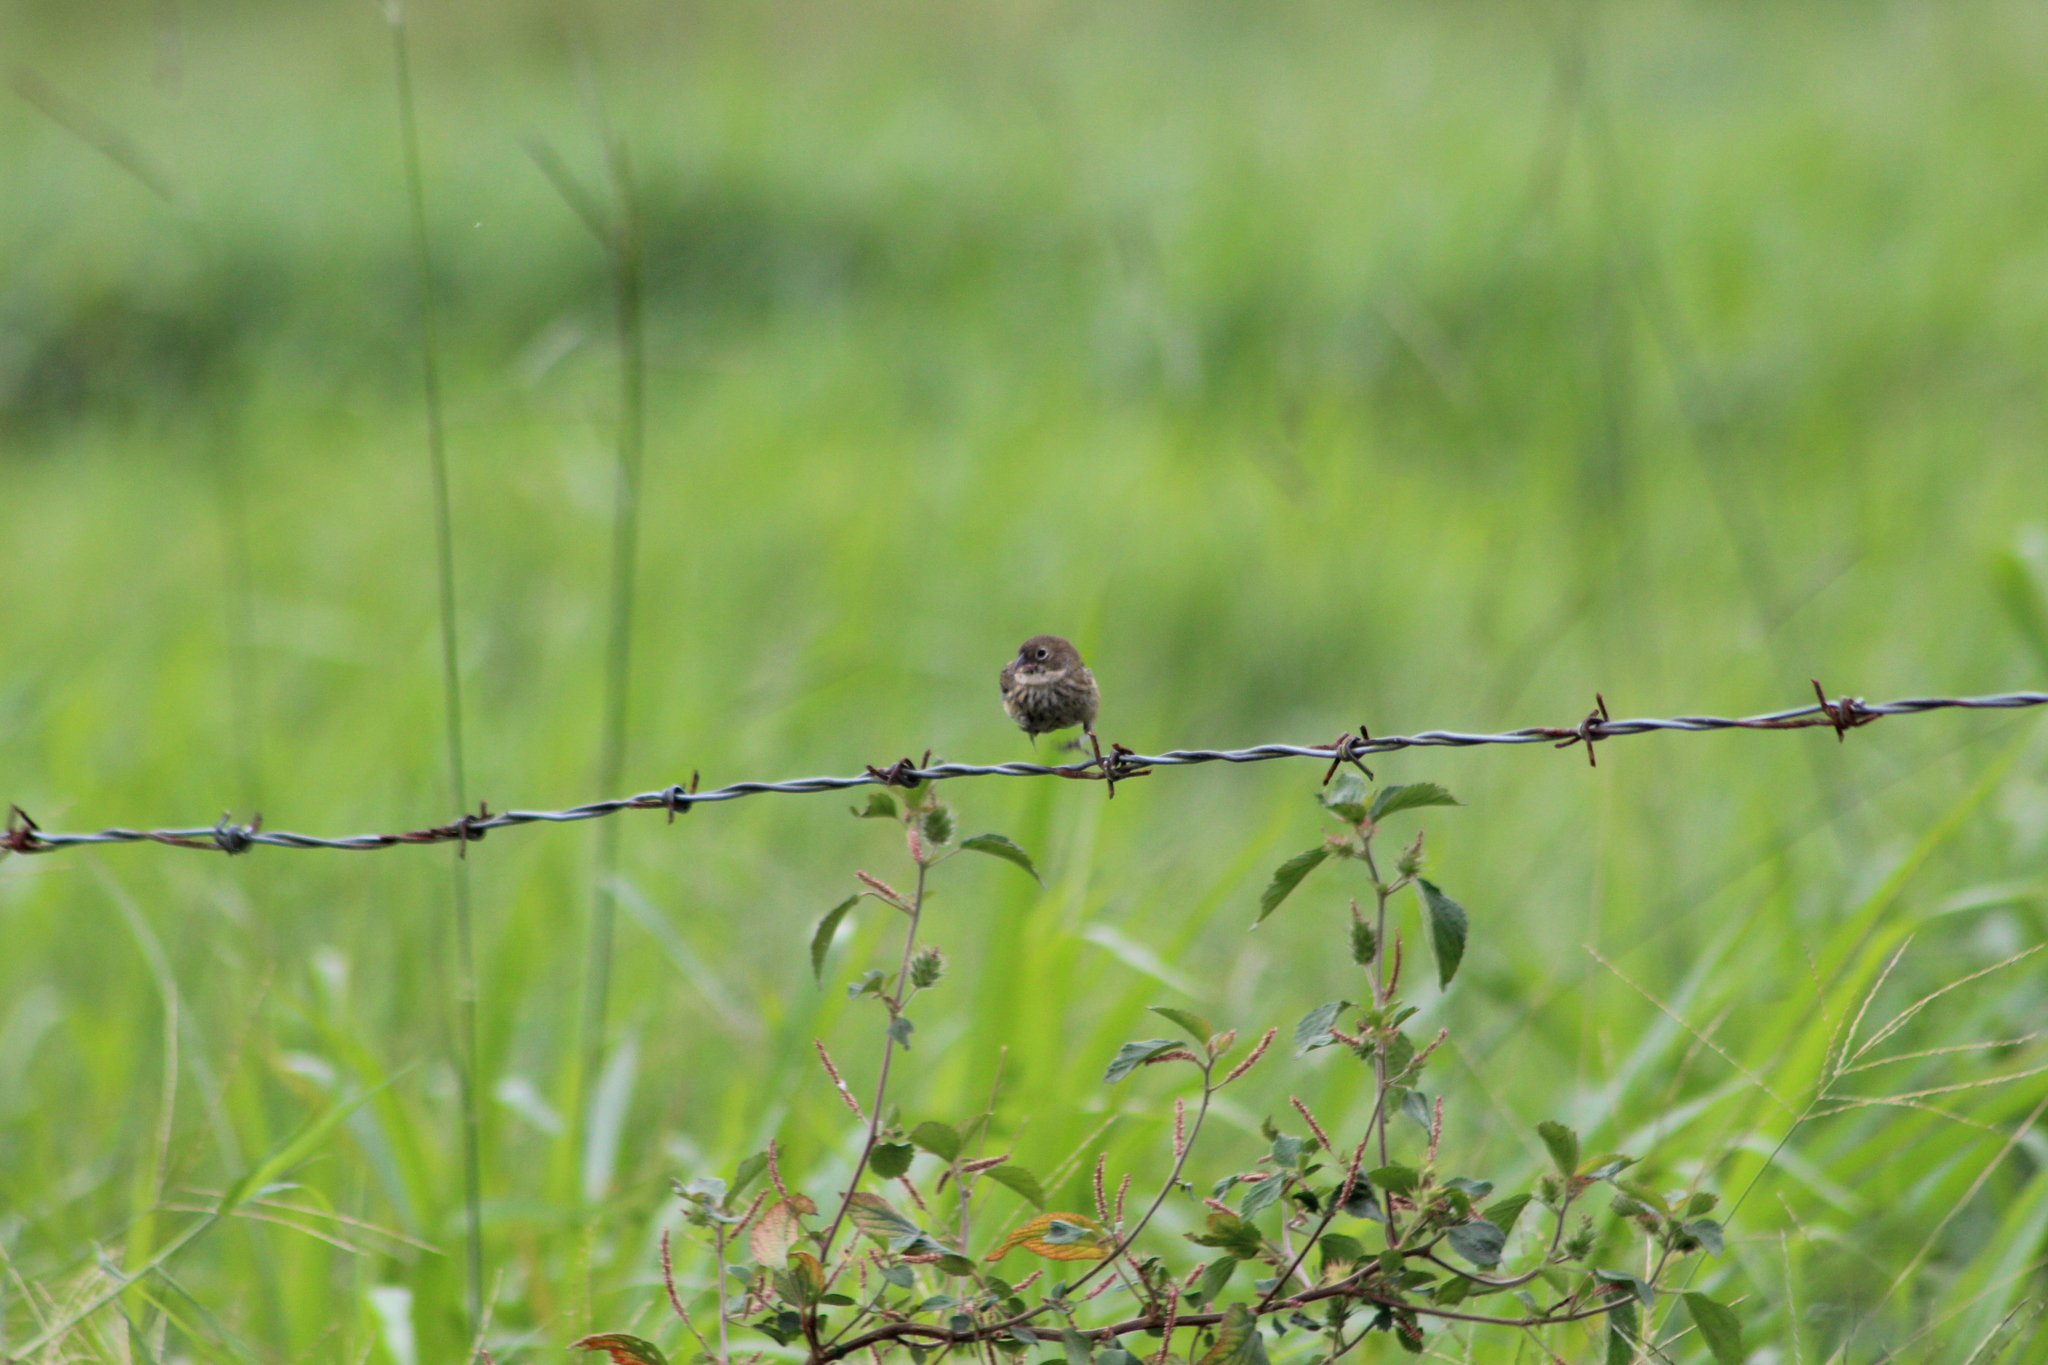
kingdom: Animalia
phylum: Chordata
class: Aves
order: Passeriformes
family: Thraupidae
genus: Volatinia
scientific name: Volatinia jacarina
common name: Blue-black grassquit
